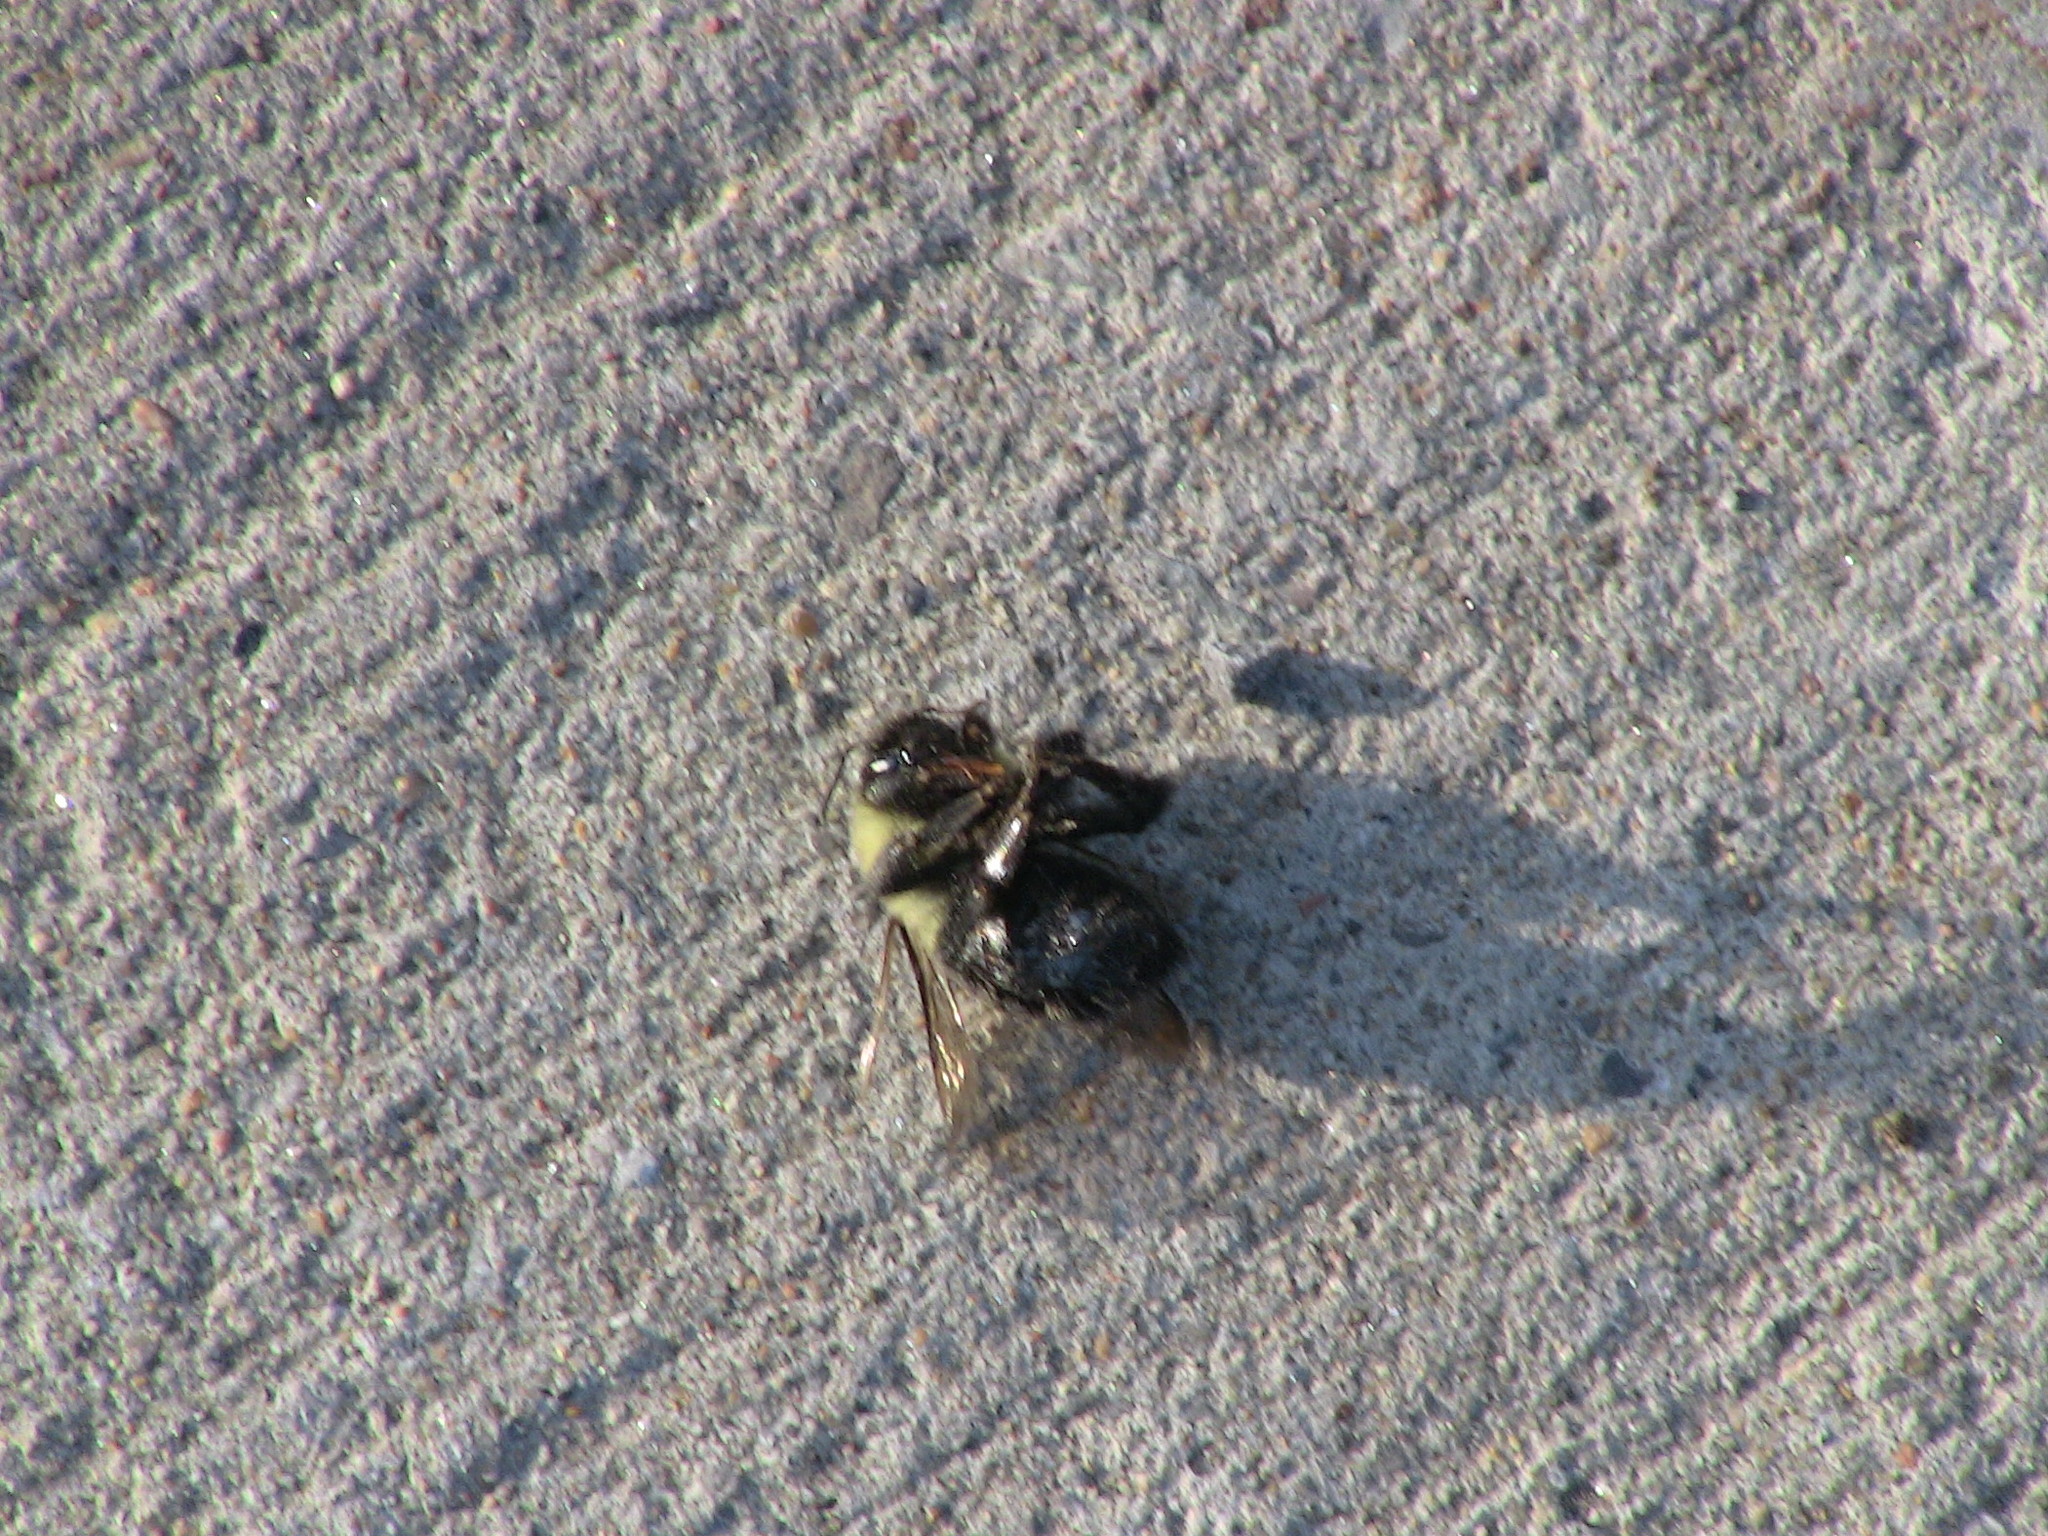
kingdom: Animalia
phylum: Arthropoda
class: Insecta
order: Hymenoptera
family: Apidae
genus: Bombus
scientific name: Bombus
